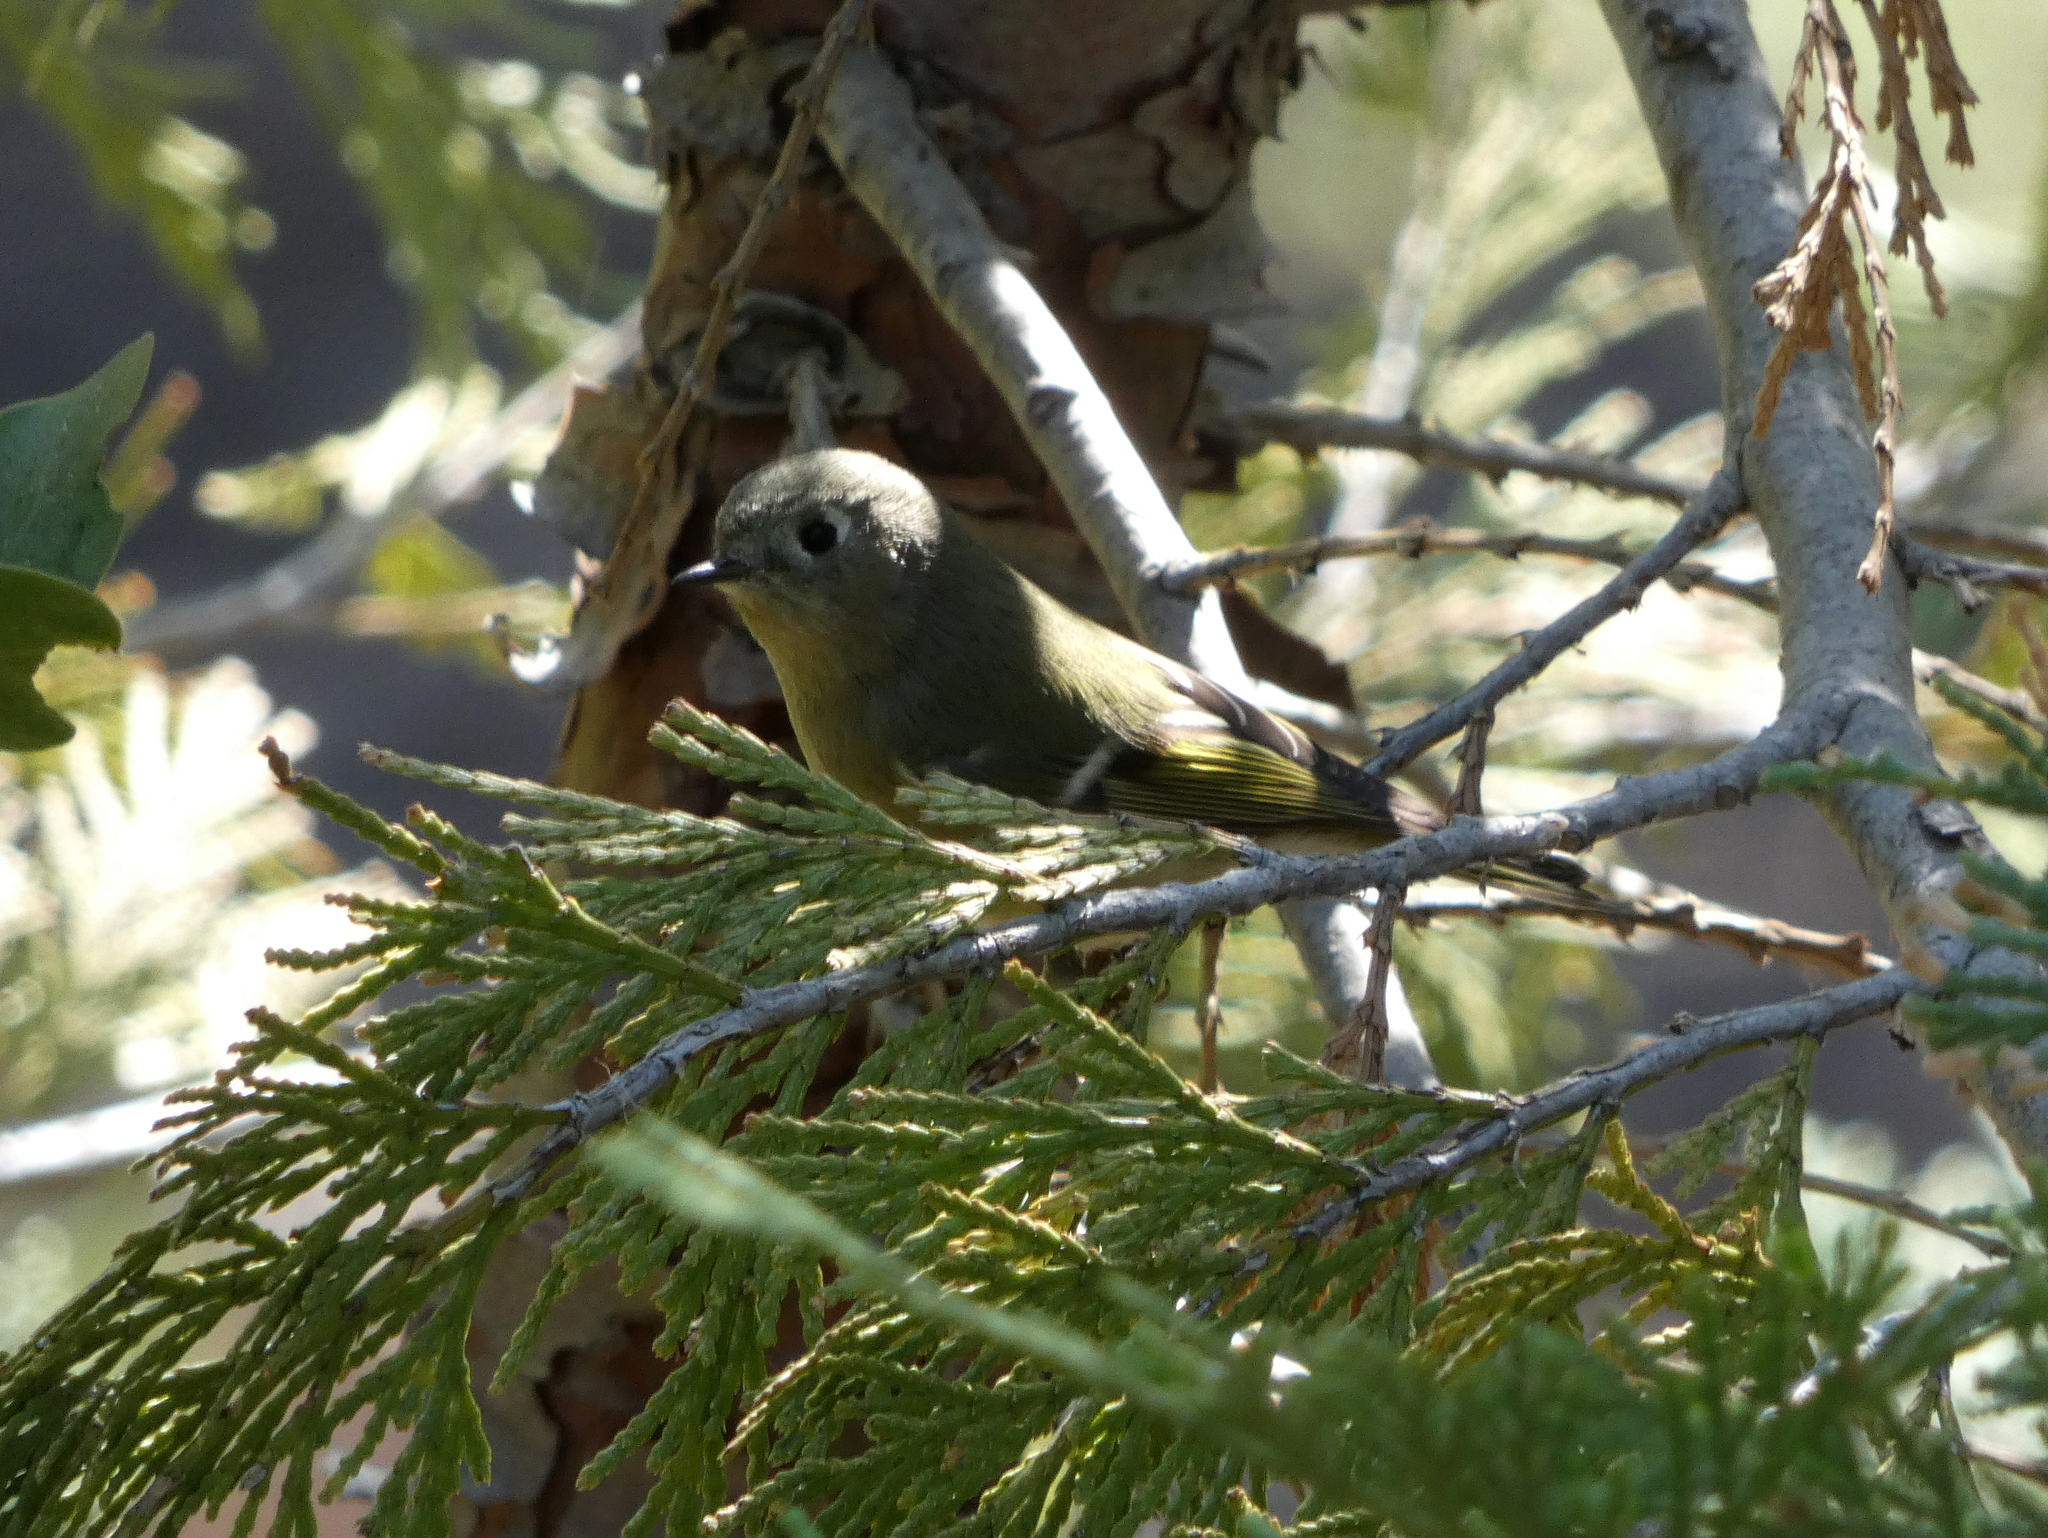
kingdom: Animalia
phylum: Chordata
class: Aves
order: Passeriformes
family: Regulidae
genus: Regulus
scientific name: Regulus calendula
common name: Ruby-crowned kinglet
